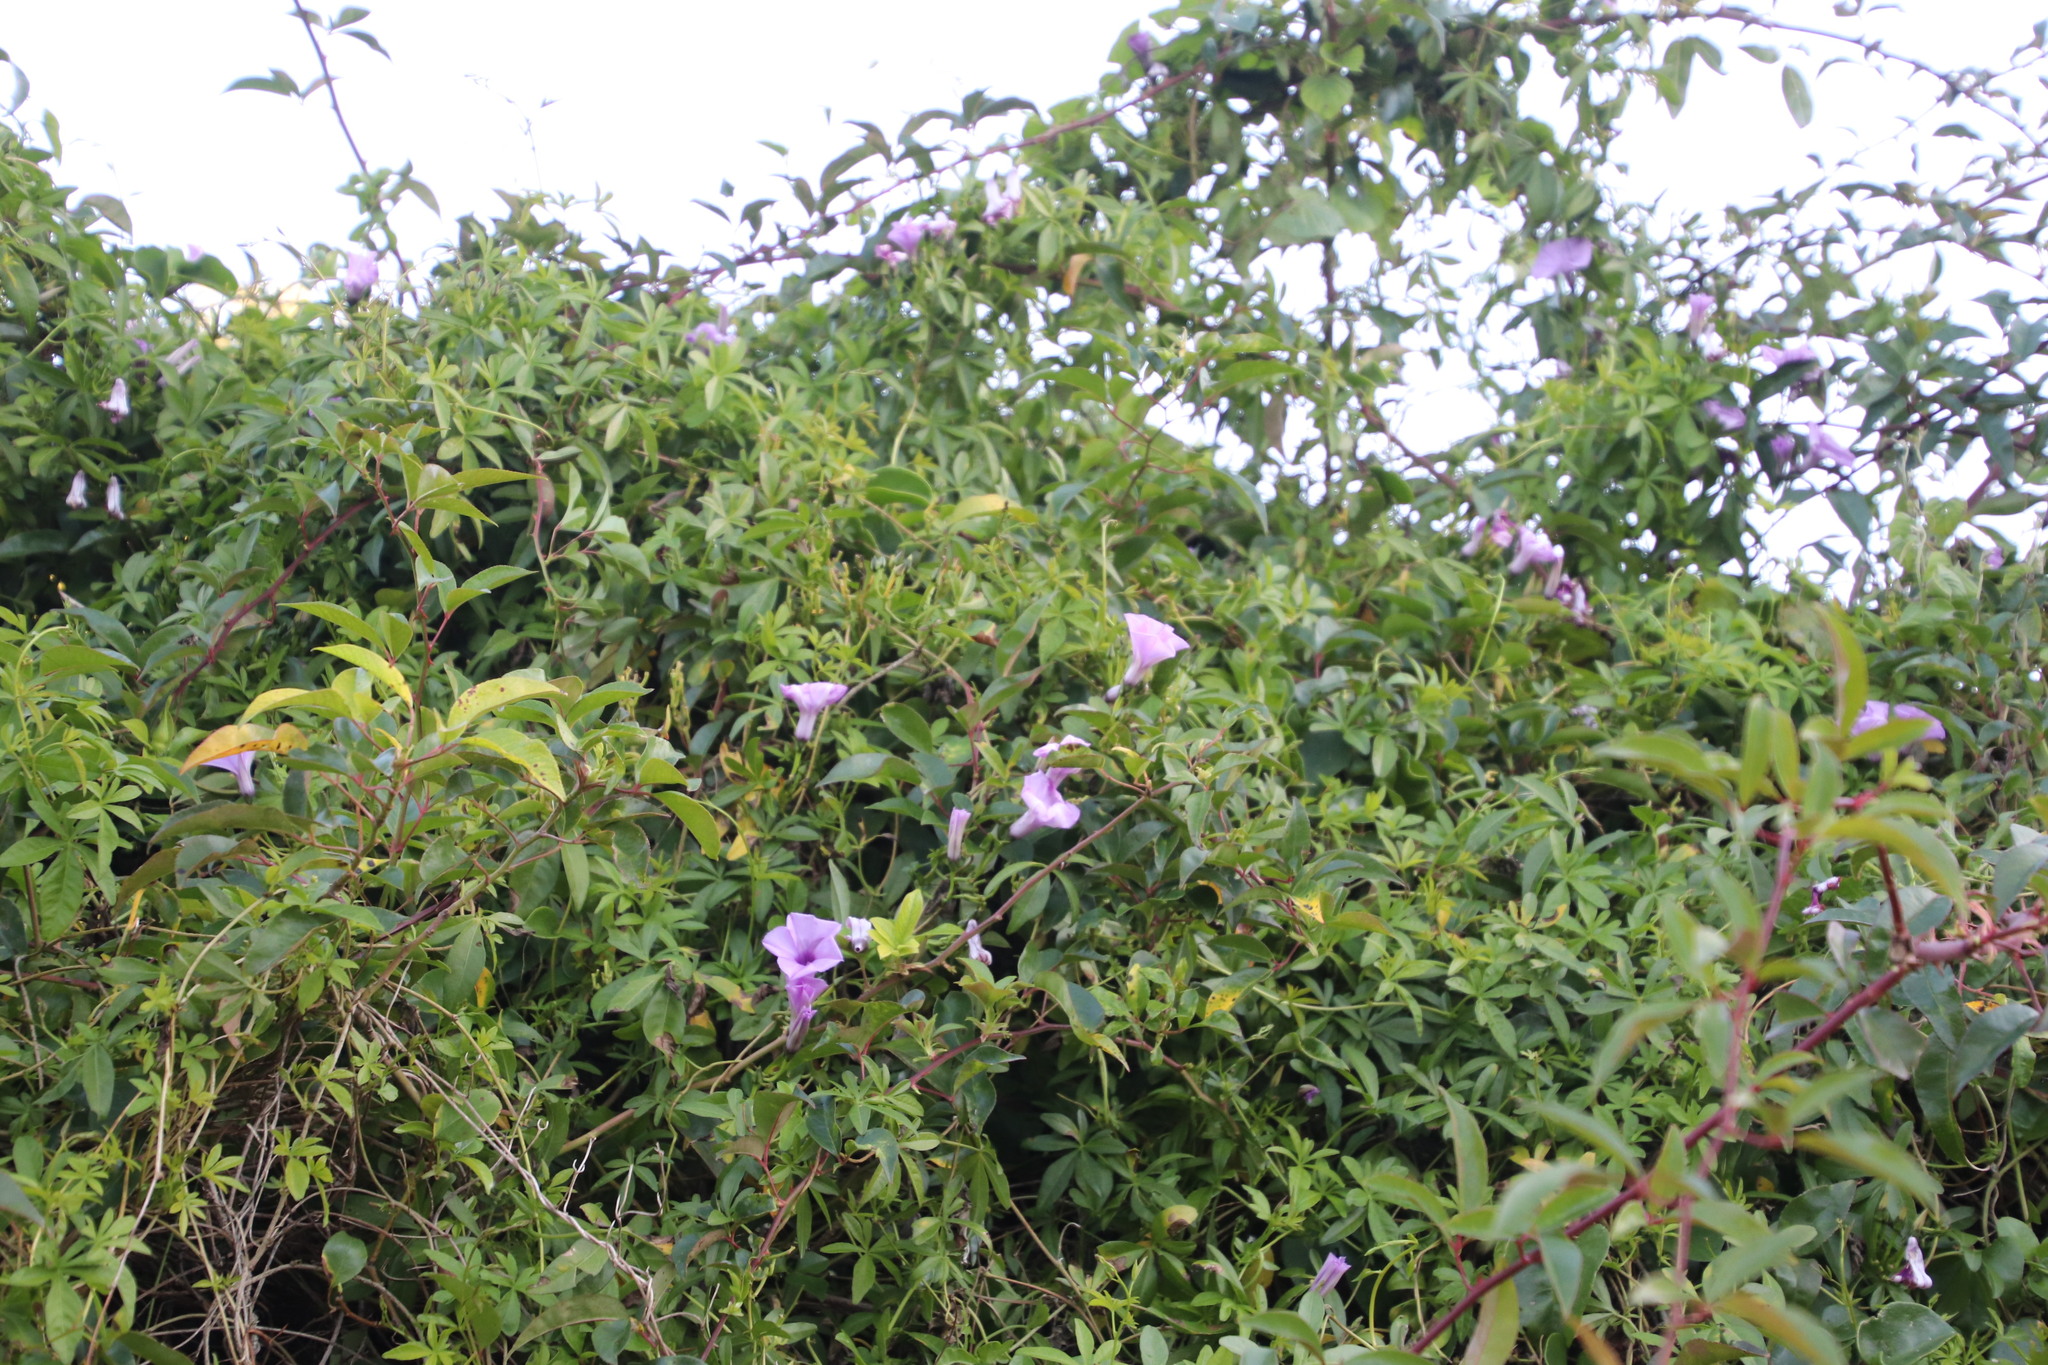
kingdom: Plantae
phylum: Tracheophyta
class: Magnoliopsida
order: Solanales
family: Convolvulaceae
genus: Ipomoea
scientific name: Ipomoea cairica
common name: Mile a minute vine
